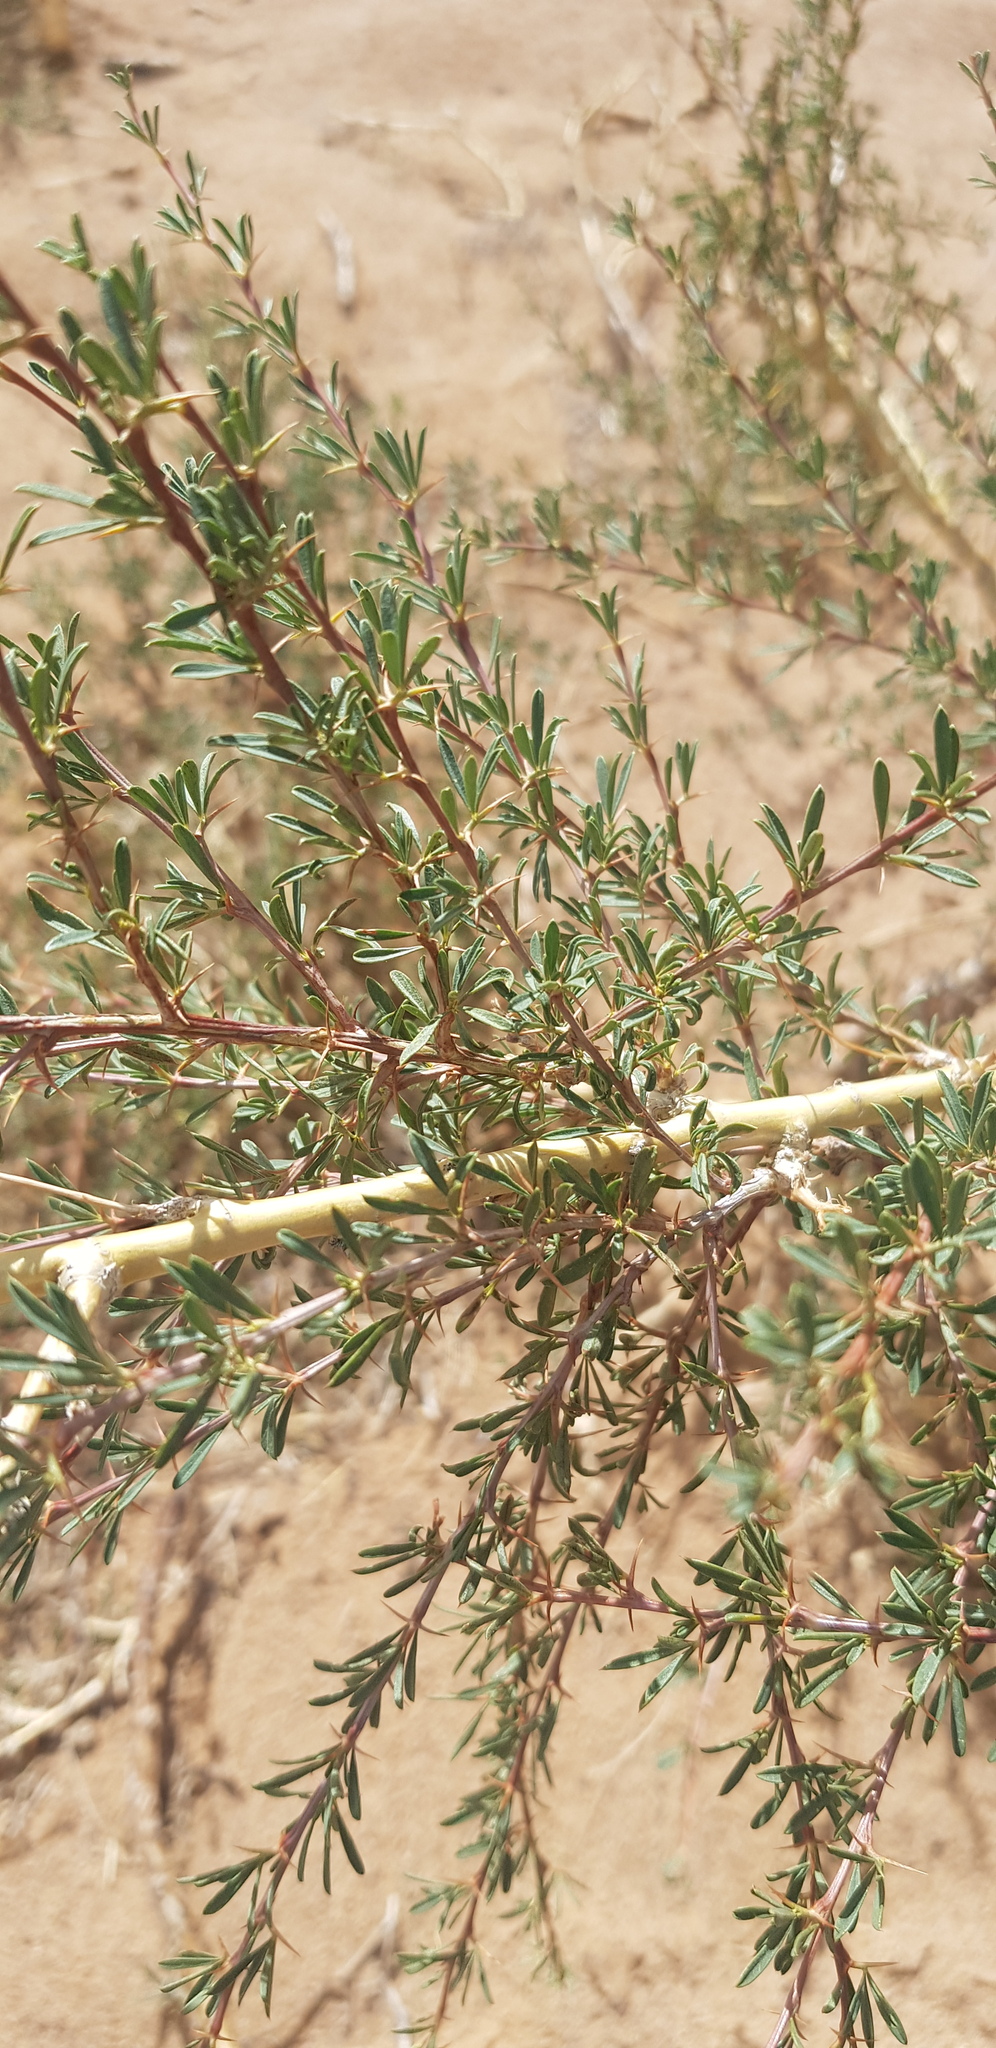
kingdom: Plantae
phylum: Tracheophyta
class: Magnoliopsida
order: Fabales
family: Fabaceae
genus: Caragana
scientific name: Caragana pygmaea
